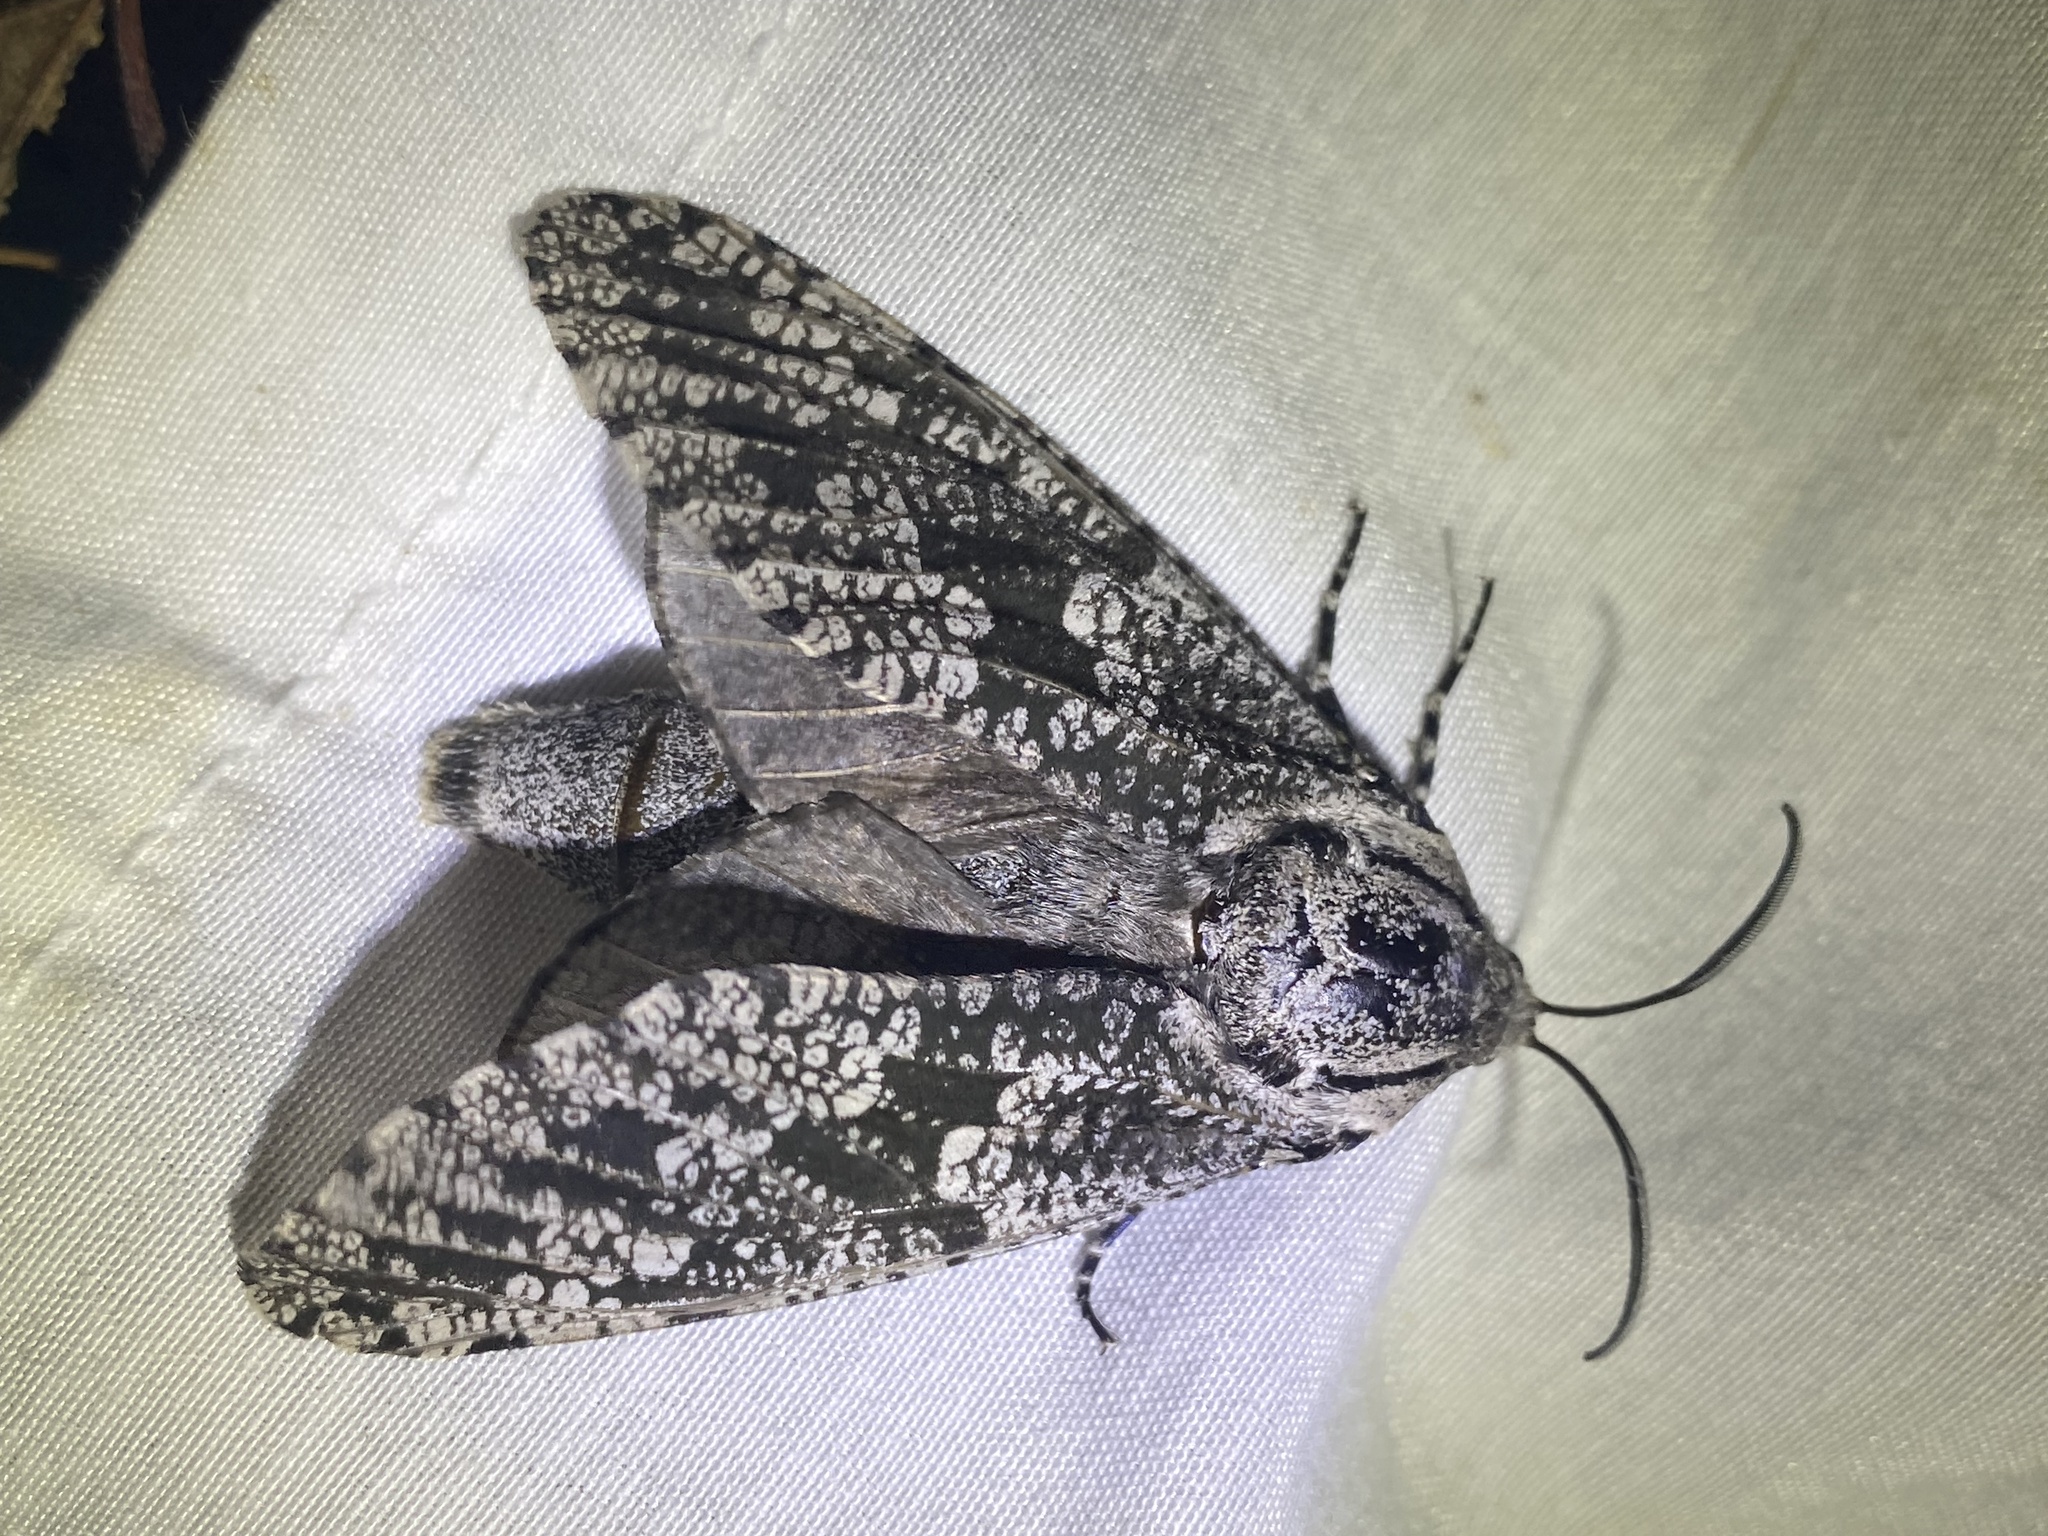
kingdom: Animalia
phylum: Arthropoda
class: Insecta
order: Lepidoptera
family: Cossidae
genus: Prionoxystus
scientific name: Prionoxystus robiniae
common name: Carpenterworm
